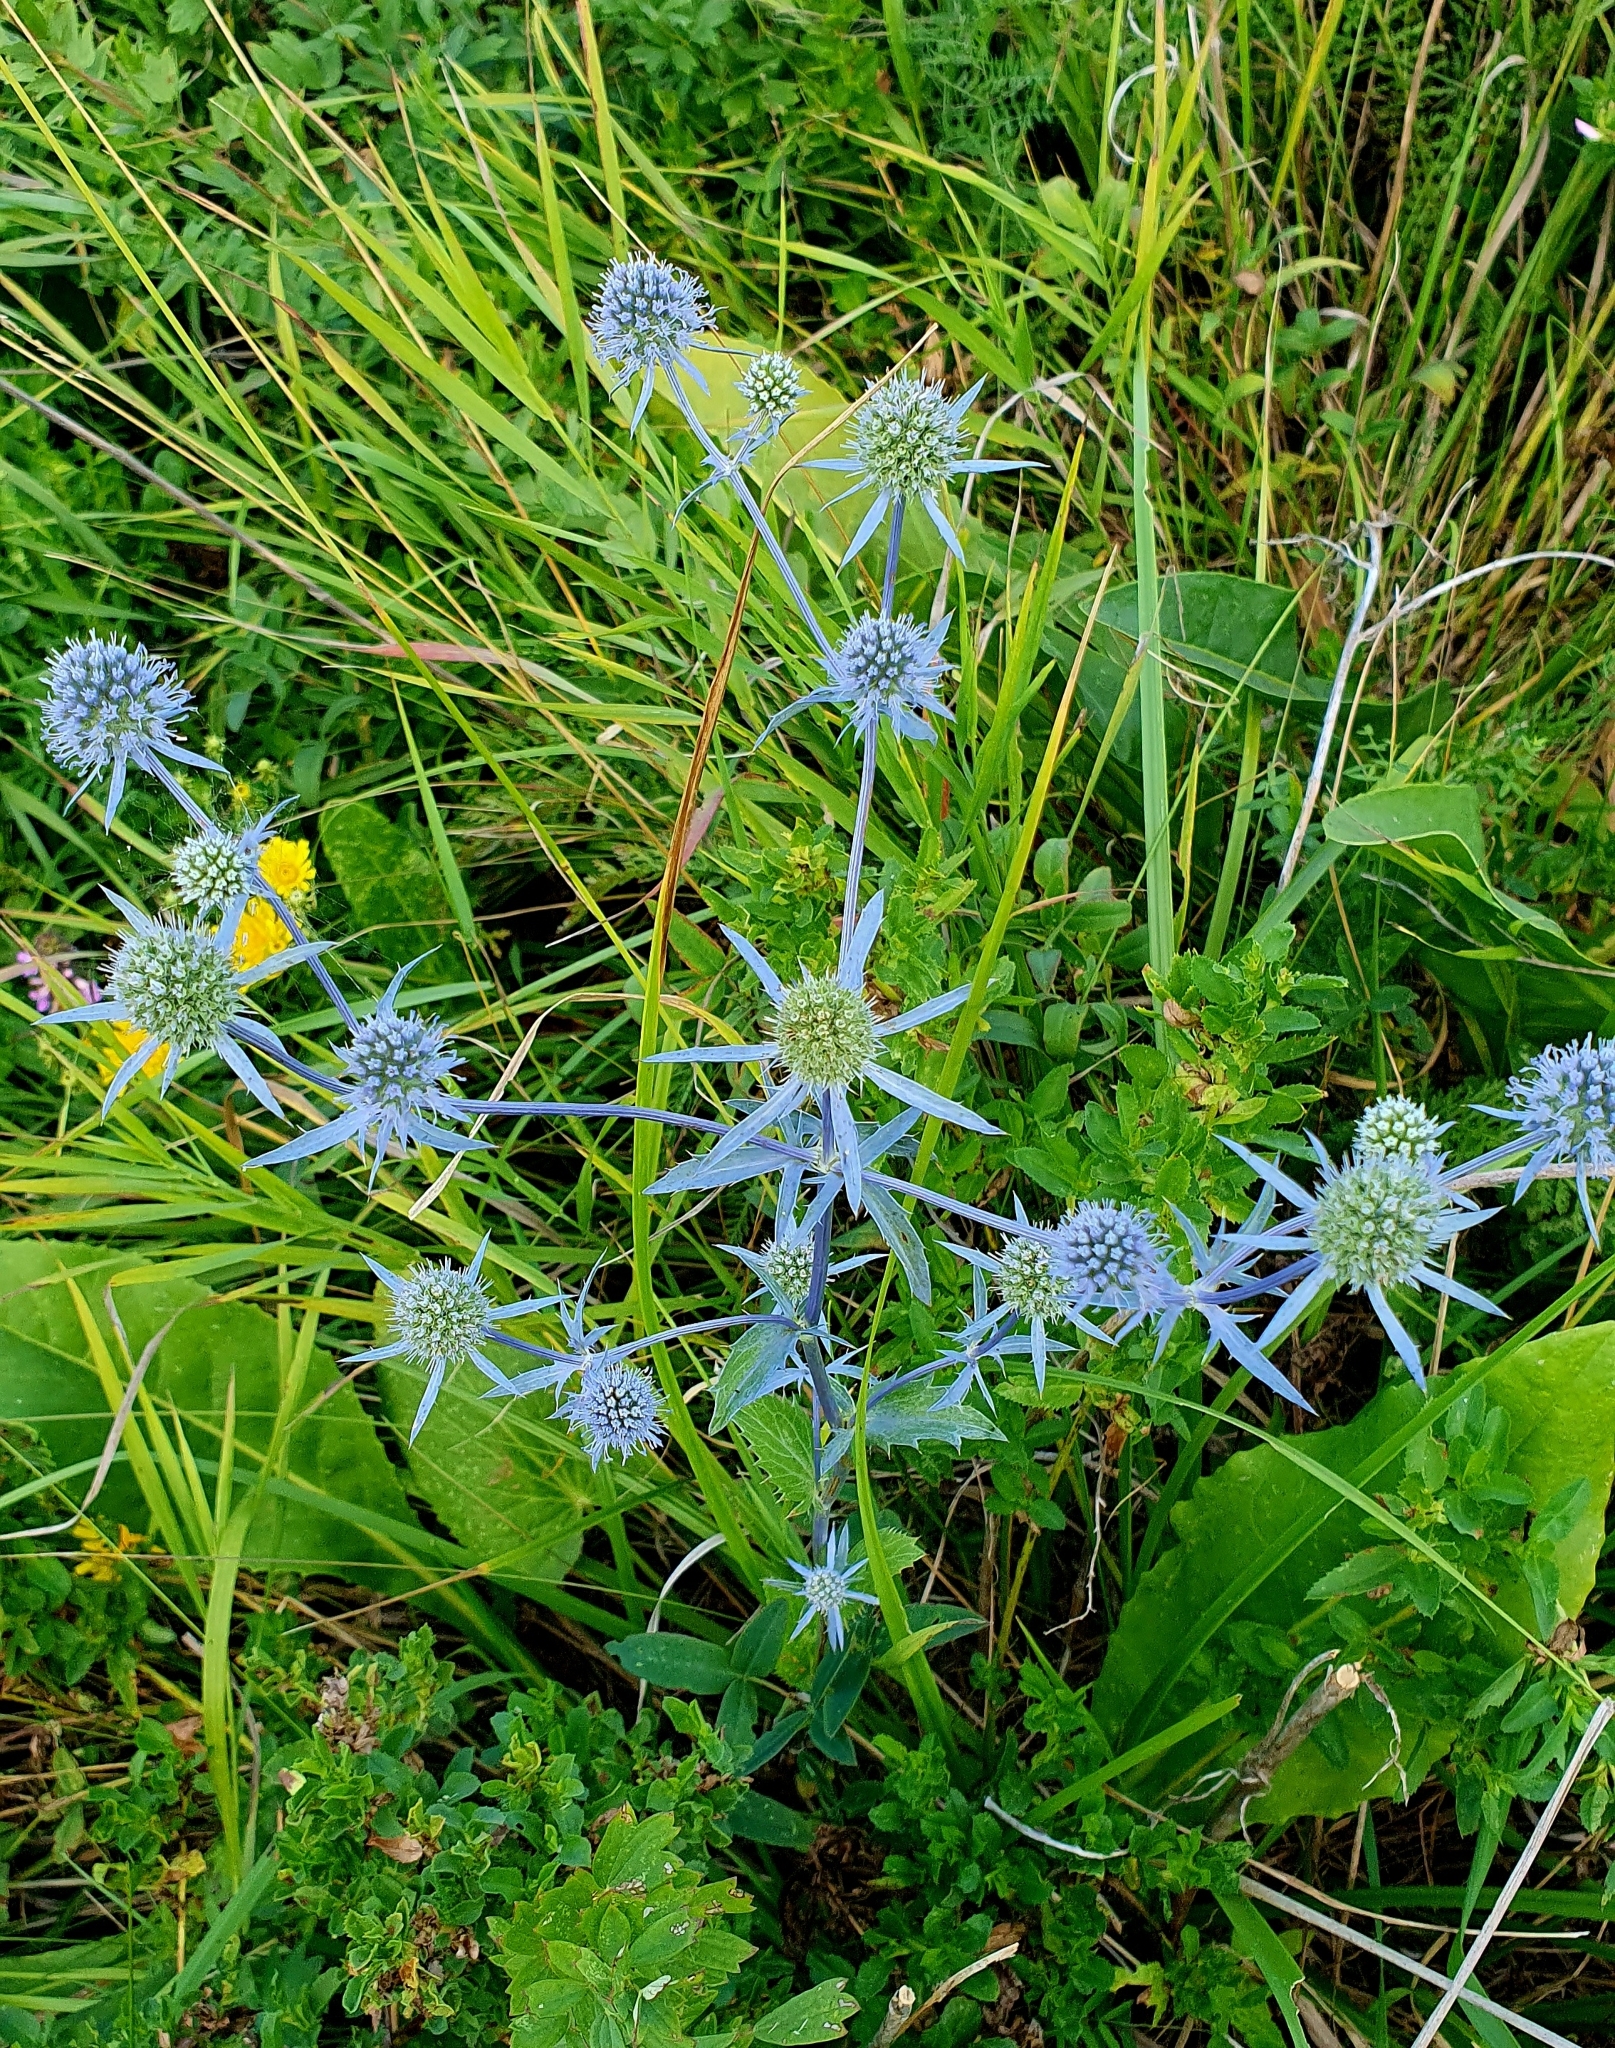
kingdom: Plantae
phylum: Tracheophyta
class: Magnoliopsida
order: Apiales
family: Apiaceae
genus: Eryngium
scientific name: Eryngium planum
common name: Blue eryngo
